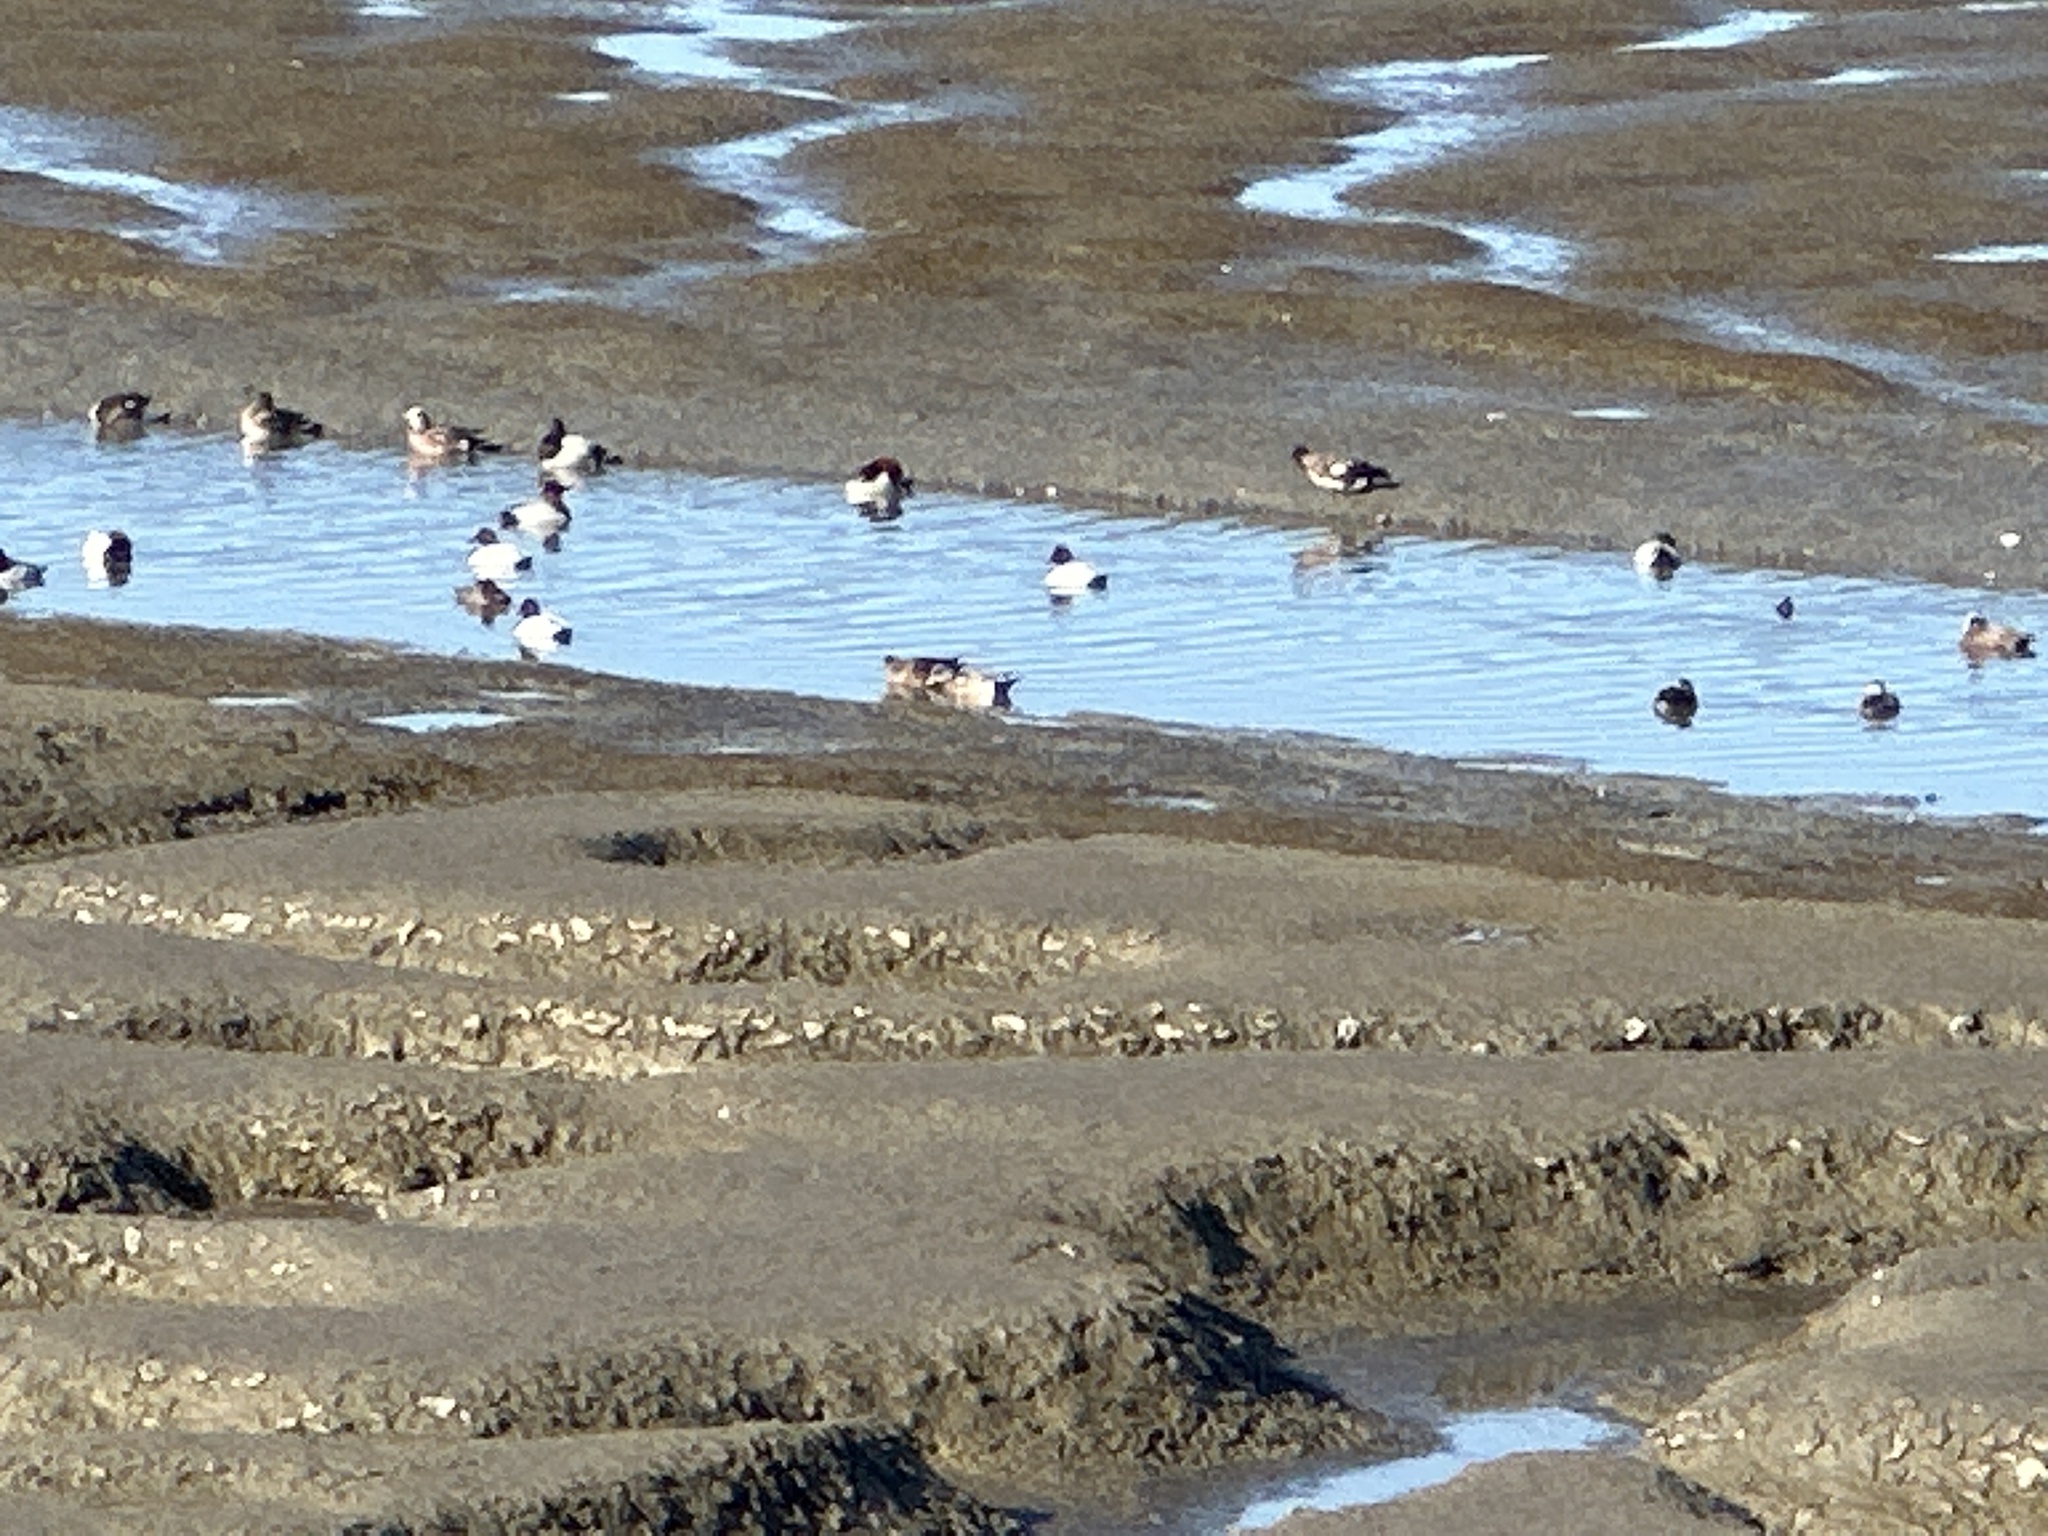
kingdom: Animalia
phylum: Chordata
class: Aves
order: Anseriformes
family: Anatidae
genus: Aythya
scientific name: Aythya valisineria
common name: Canvasback
